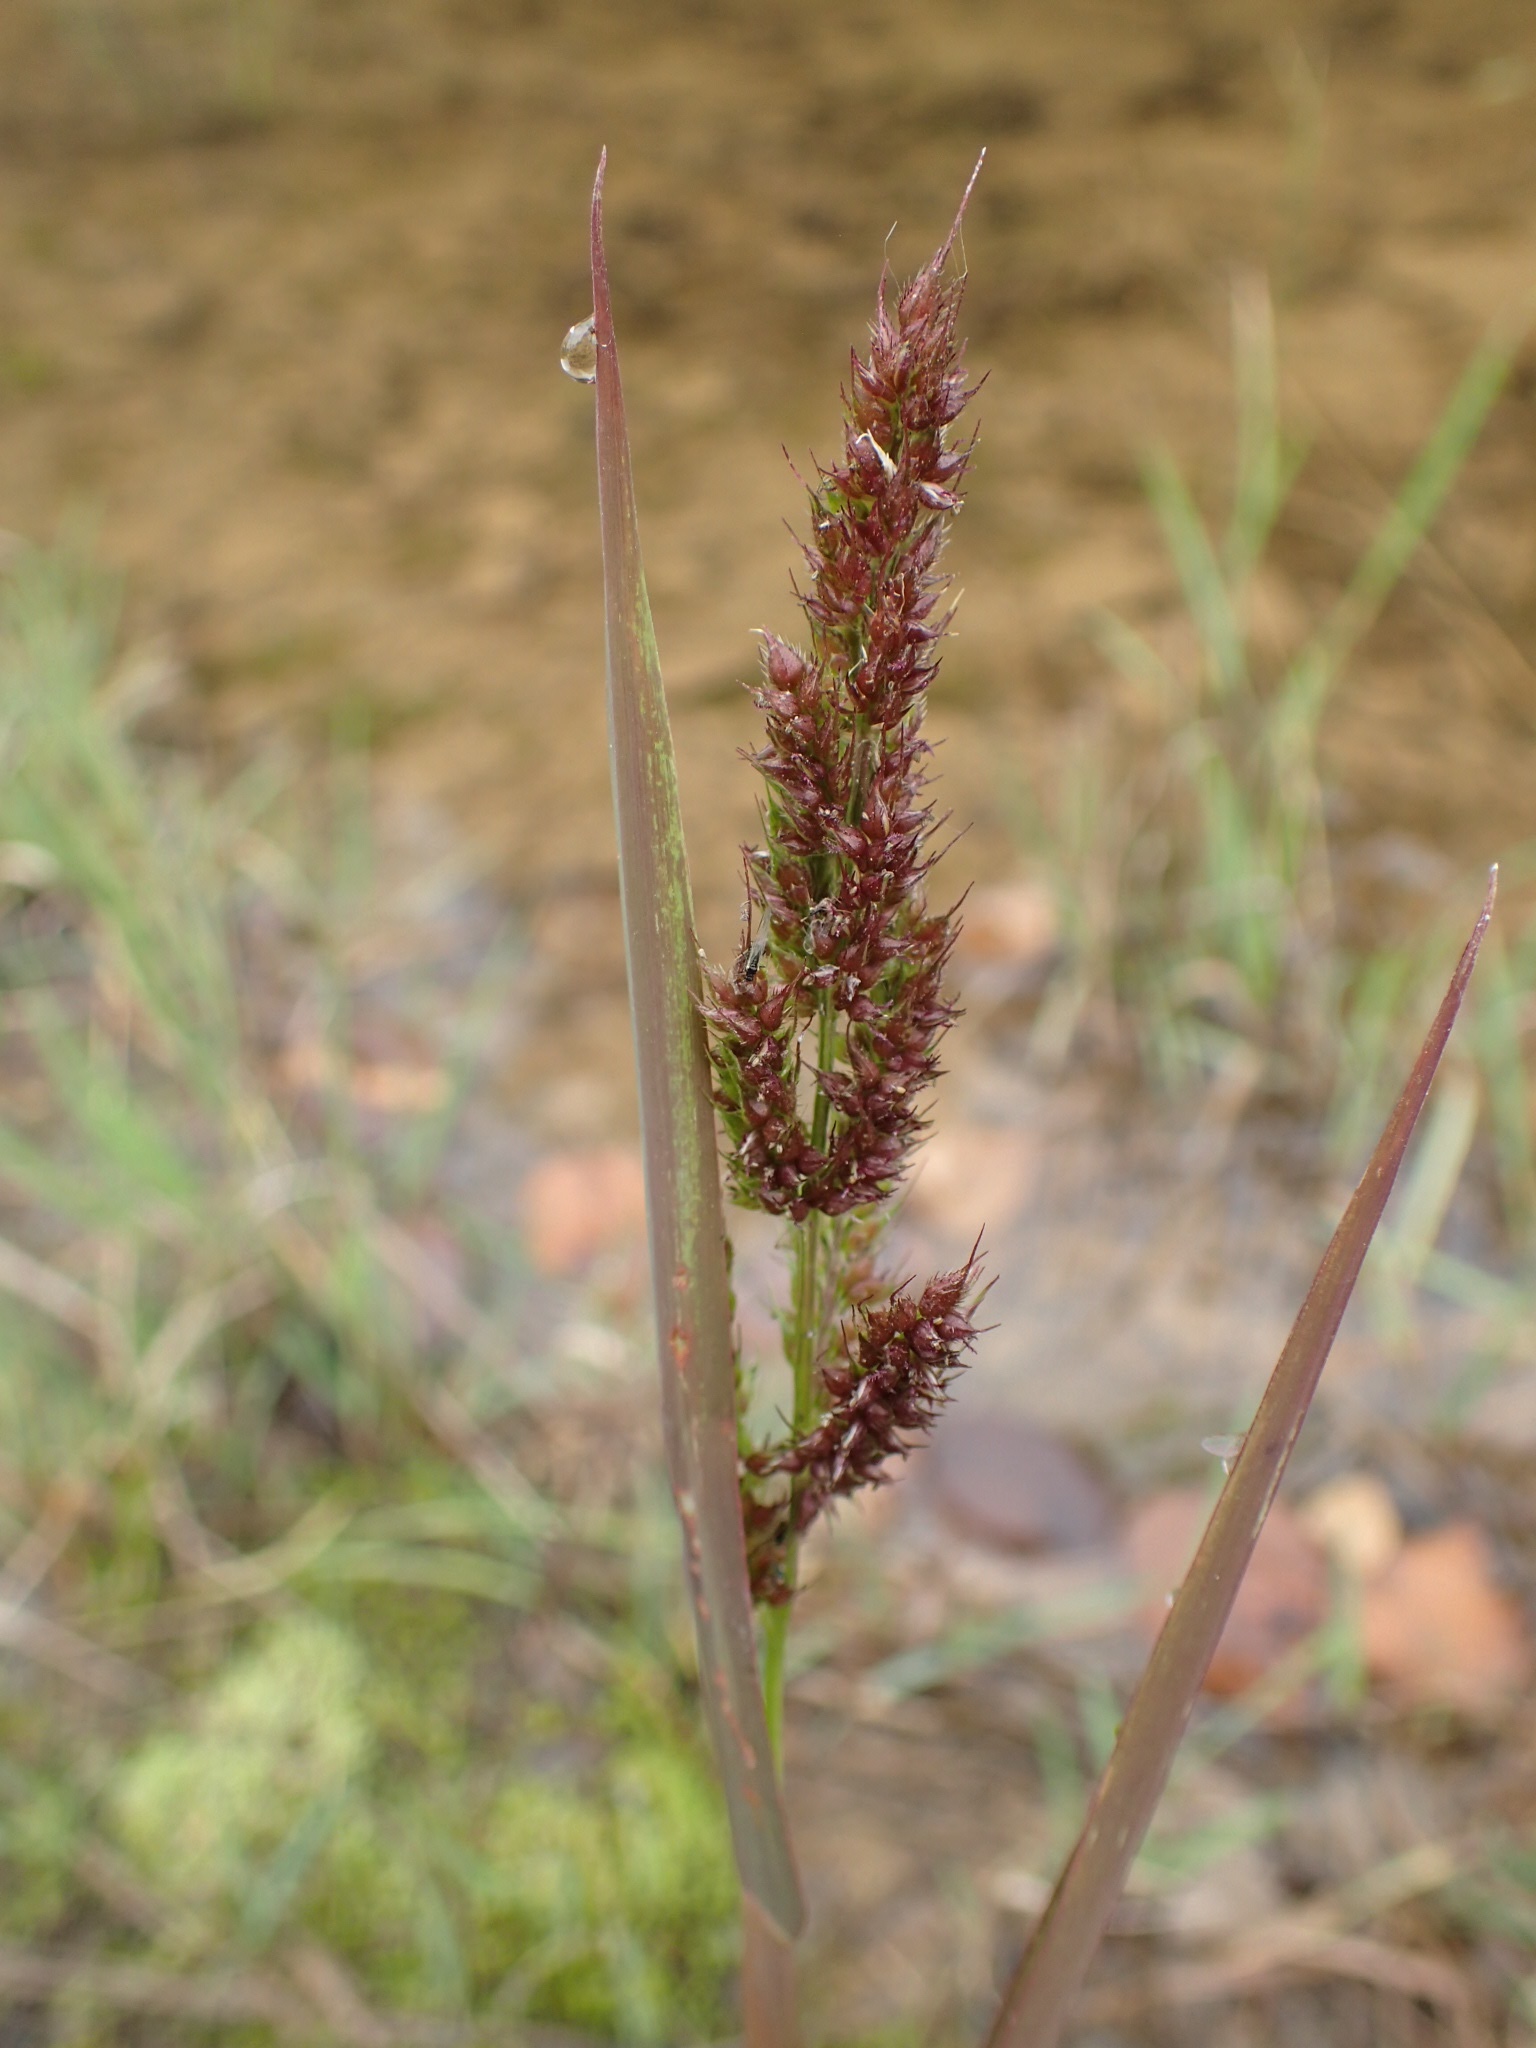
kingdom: Plantae
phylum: Tracheophyta
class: Liliopsida
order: Poales
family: Poaceae
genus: Echinochloa
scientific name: Echinochloa crus-galli
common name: Cockspur
